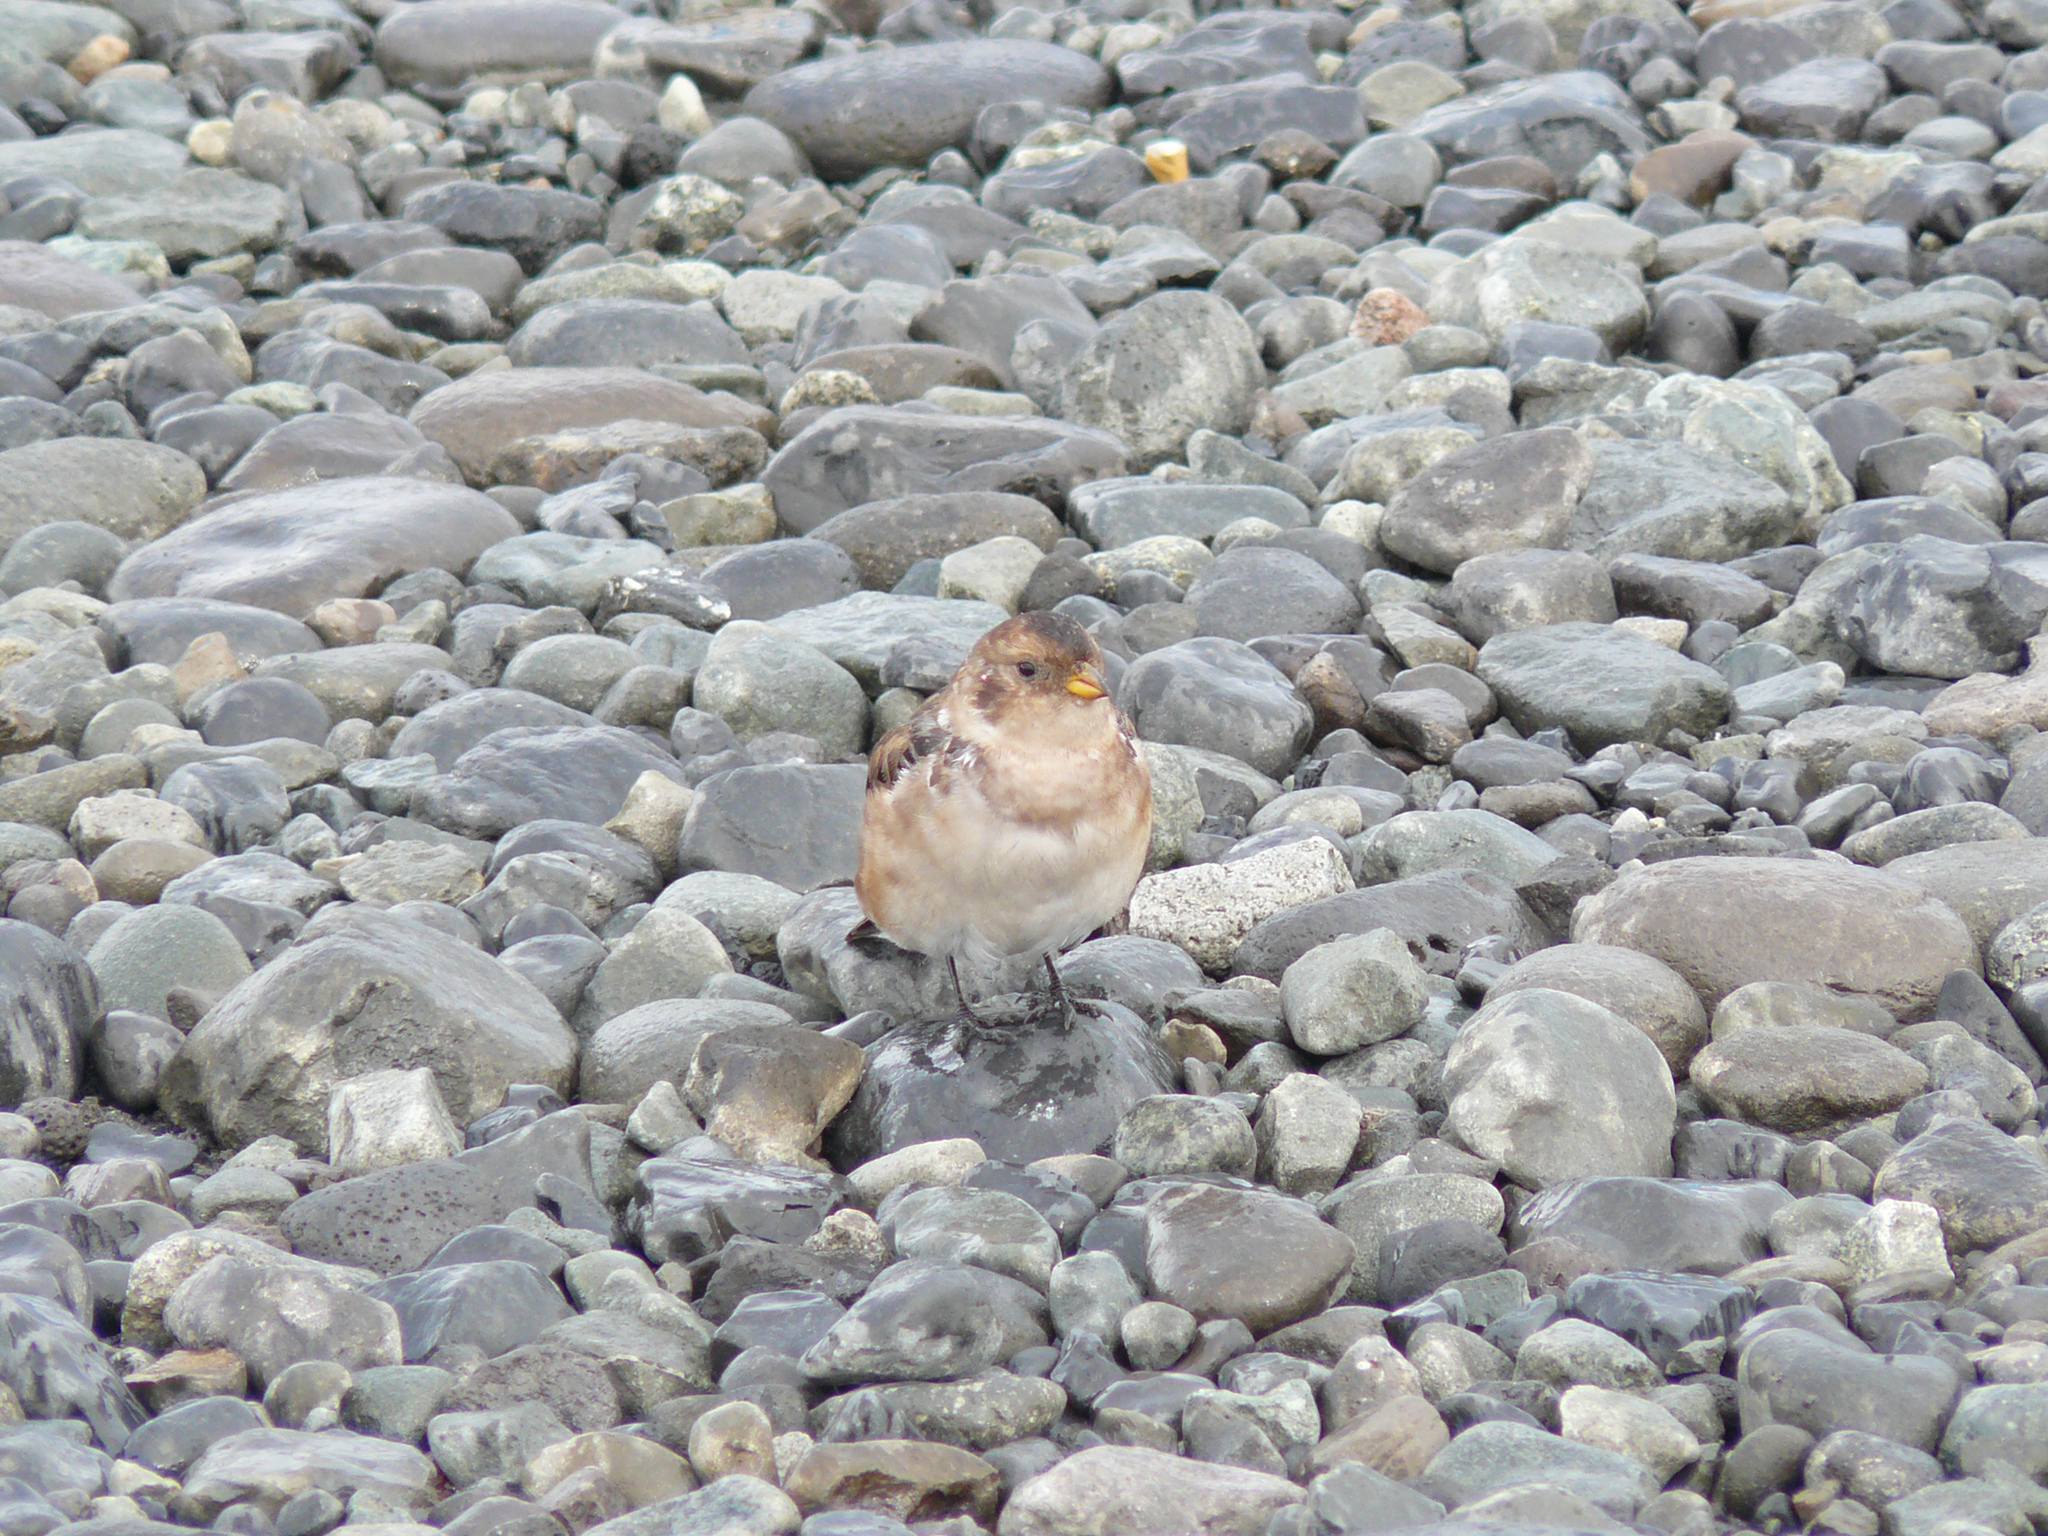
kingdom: Animalia
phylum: Chordata
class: Aves
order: Passeriformes
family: Calcariidae
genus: Plectrophenax
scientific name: Plectrophenax nivalis
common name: Snow bunting
